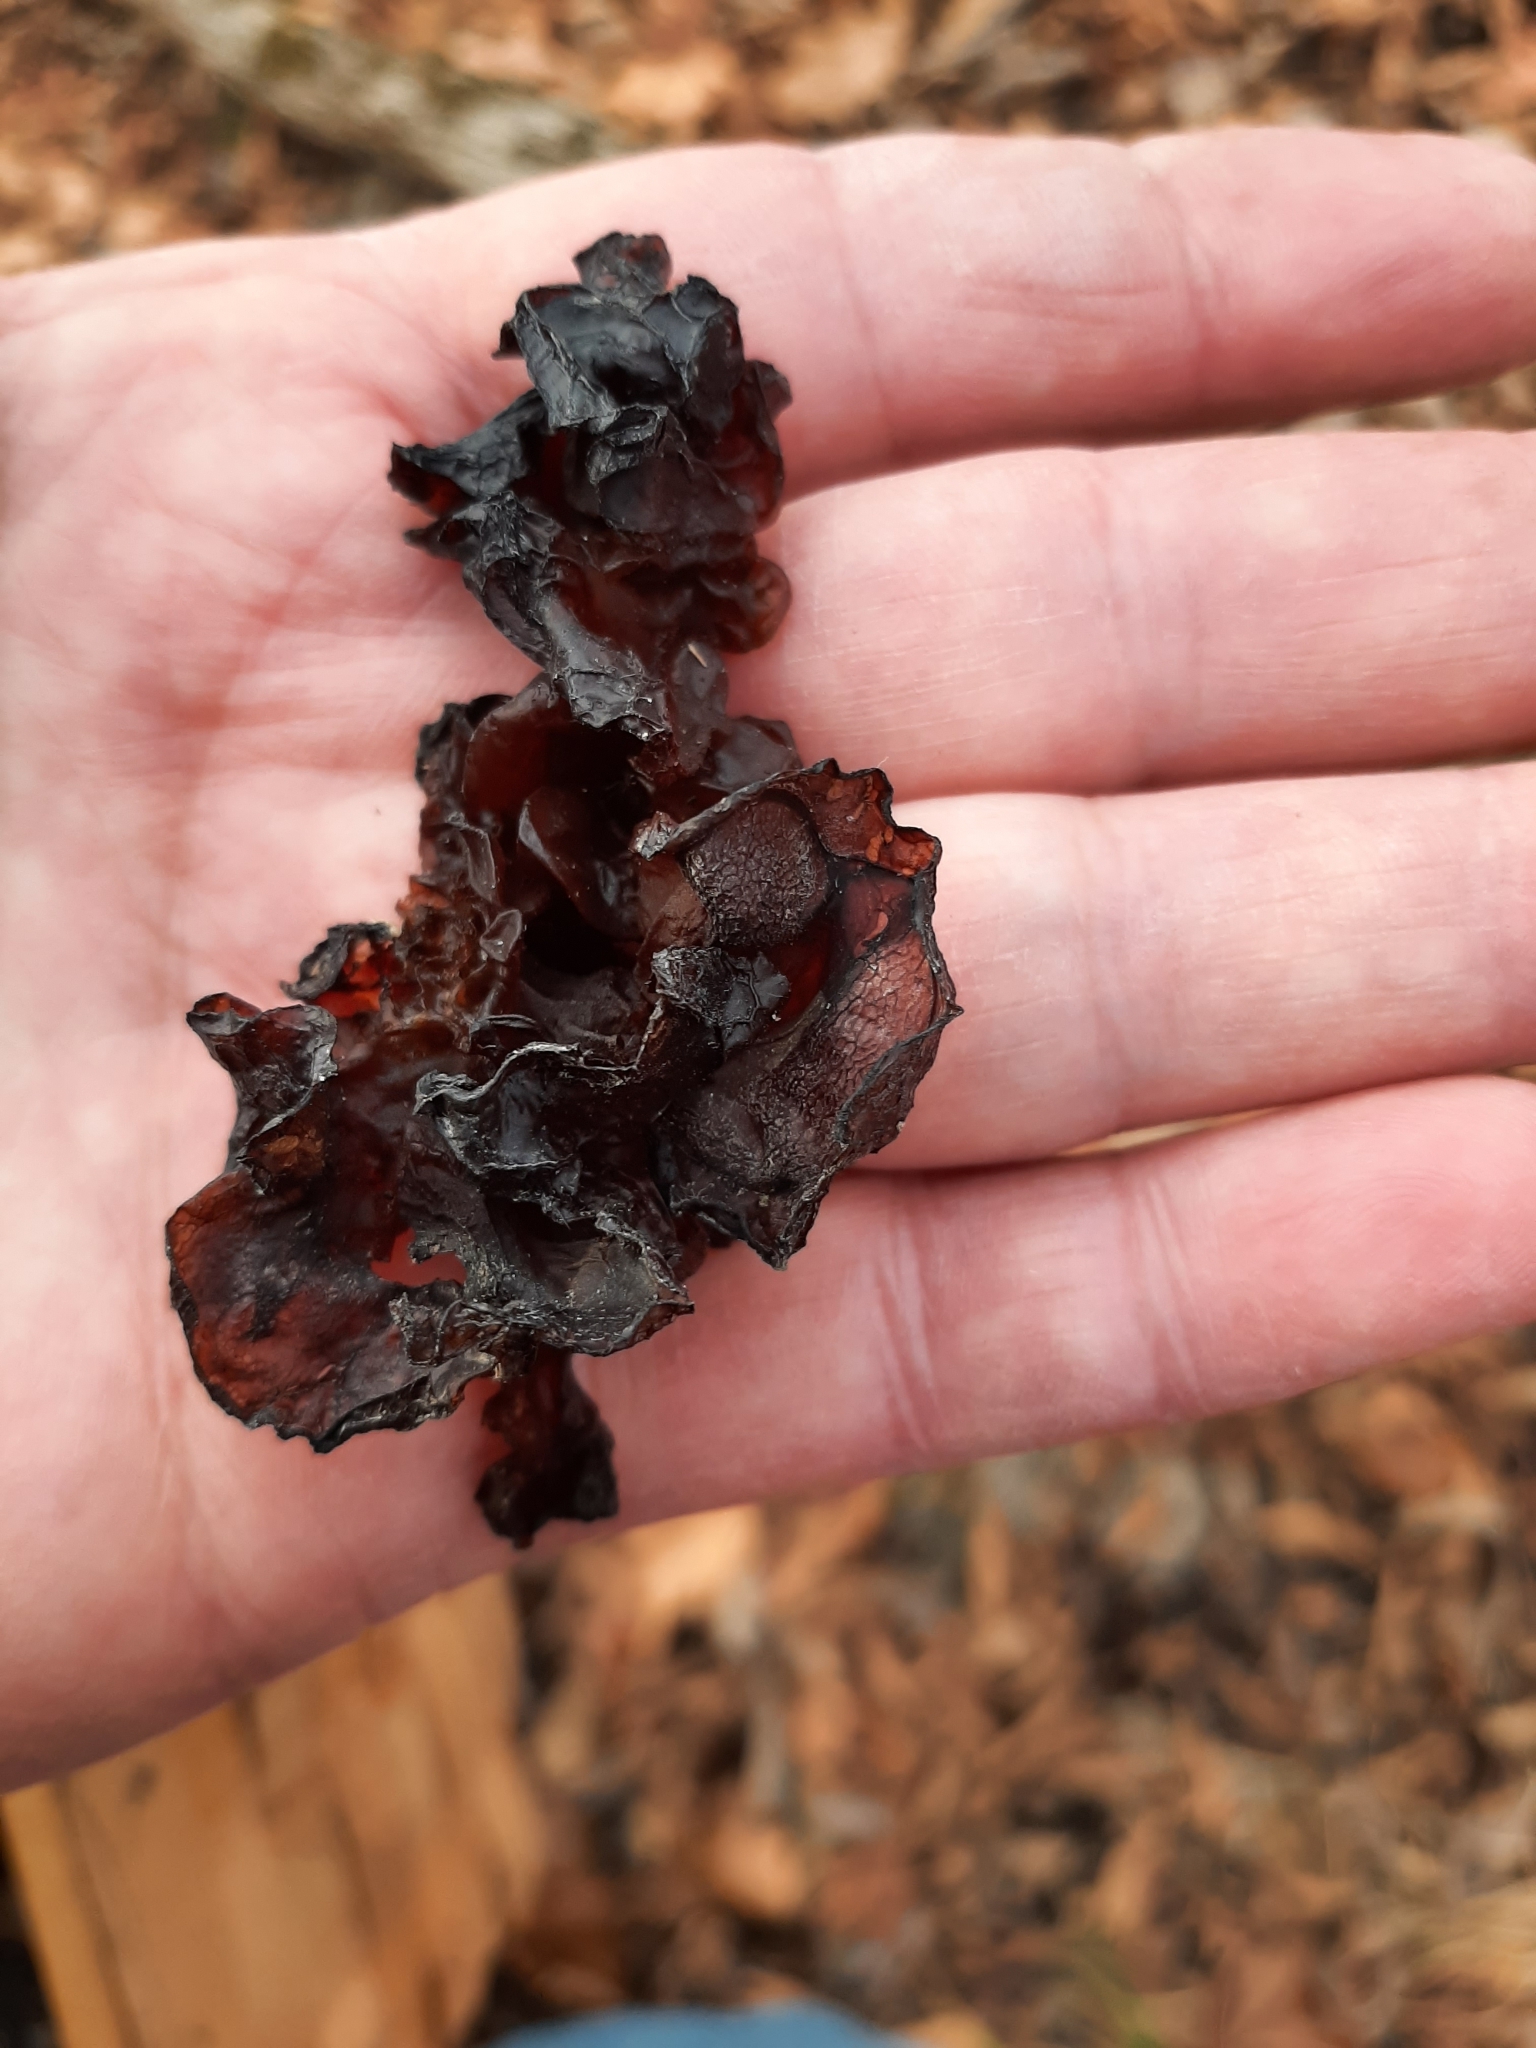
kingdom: Fungi
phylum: Basidiomycota
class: Agaricomycetes
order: Auriculariales
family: Auriculariaceae
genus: Exidia
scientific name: Exidia
